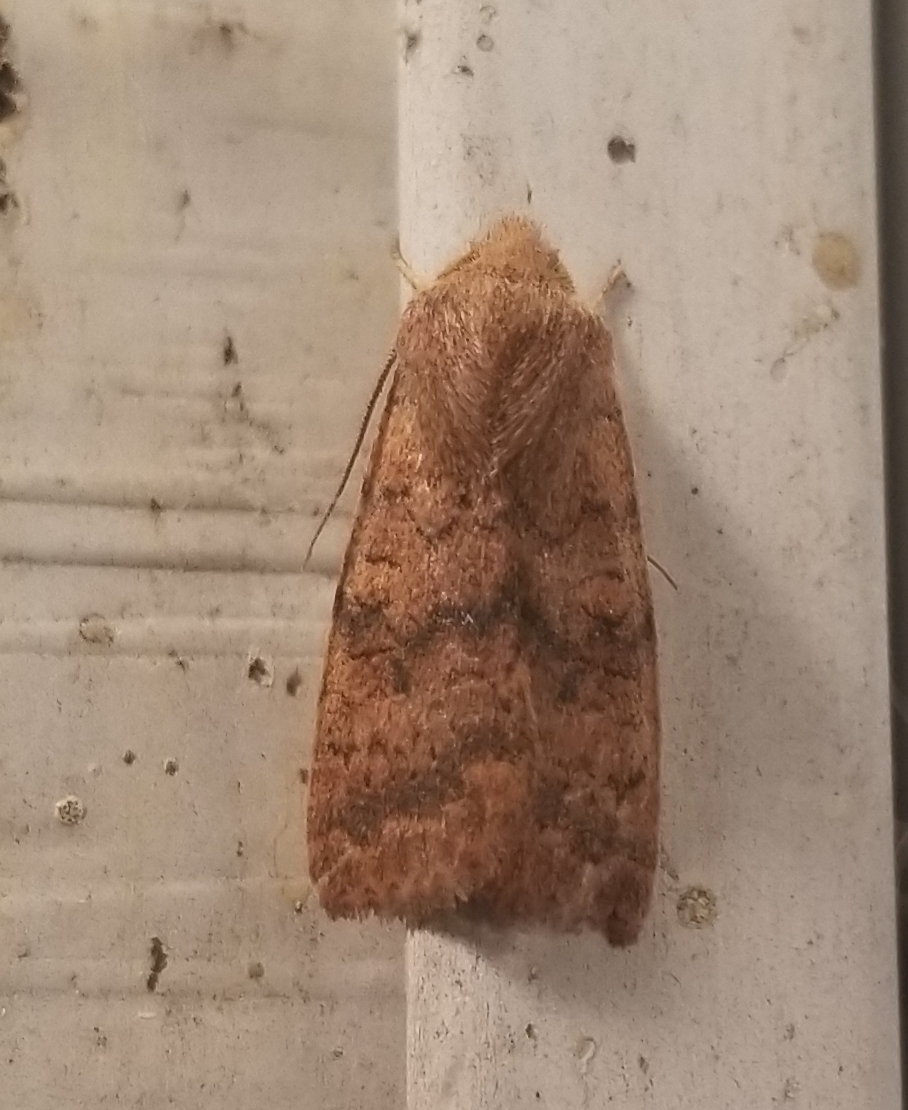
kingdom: Animalia
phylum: Arthropoda
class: Insecta
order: Lepidoptera
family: Noctuidae
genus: Agrochola
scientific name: Agrochola bicolorago
